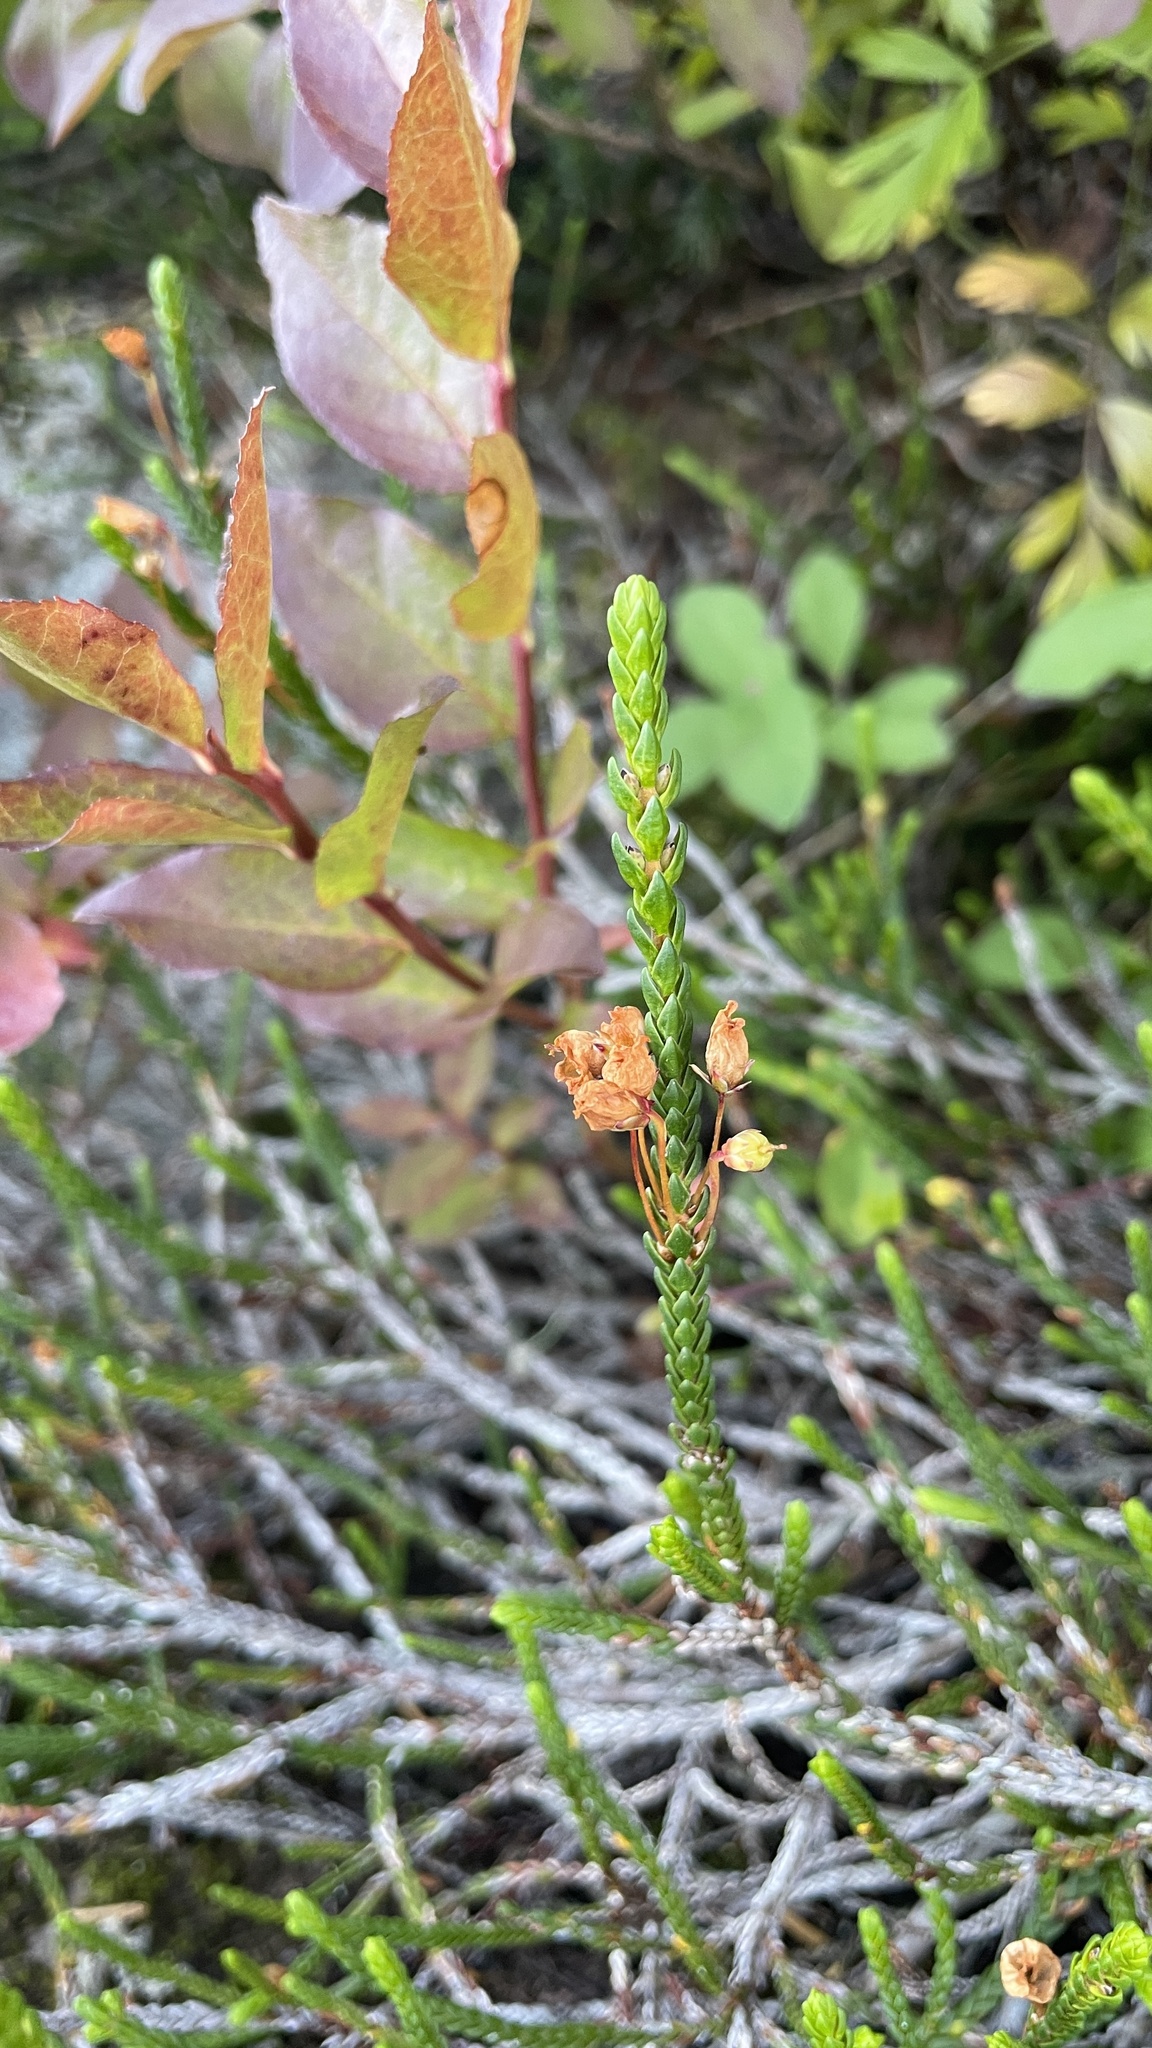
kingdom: Plantae
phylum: Tracheophyta
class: Magnoliopsida
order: Ericales
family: Ericaceae
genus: Cassiope
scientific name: Cassiope mertensiana
